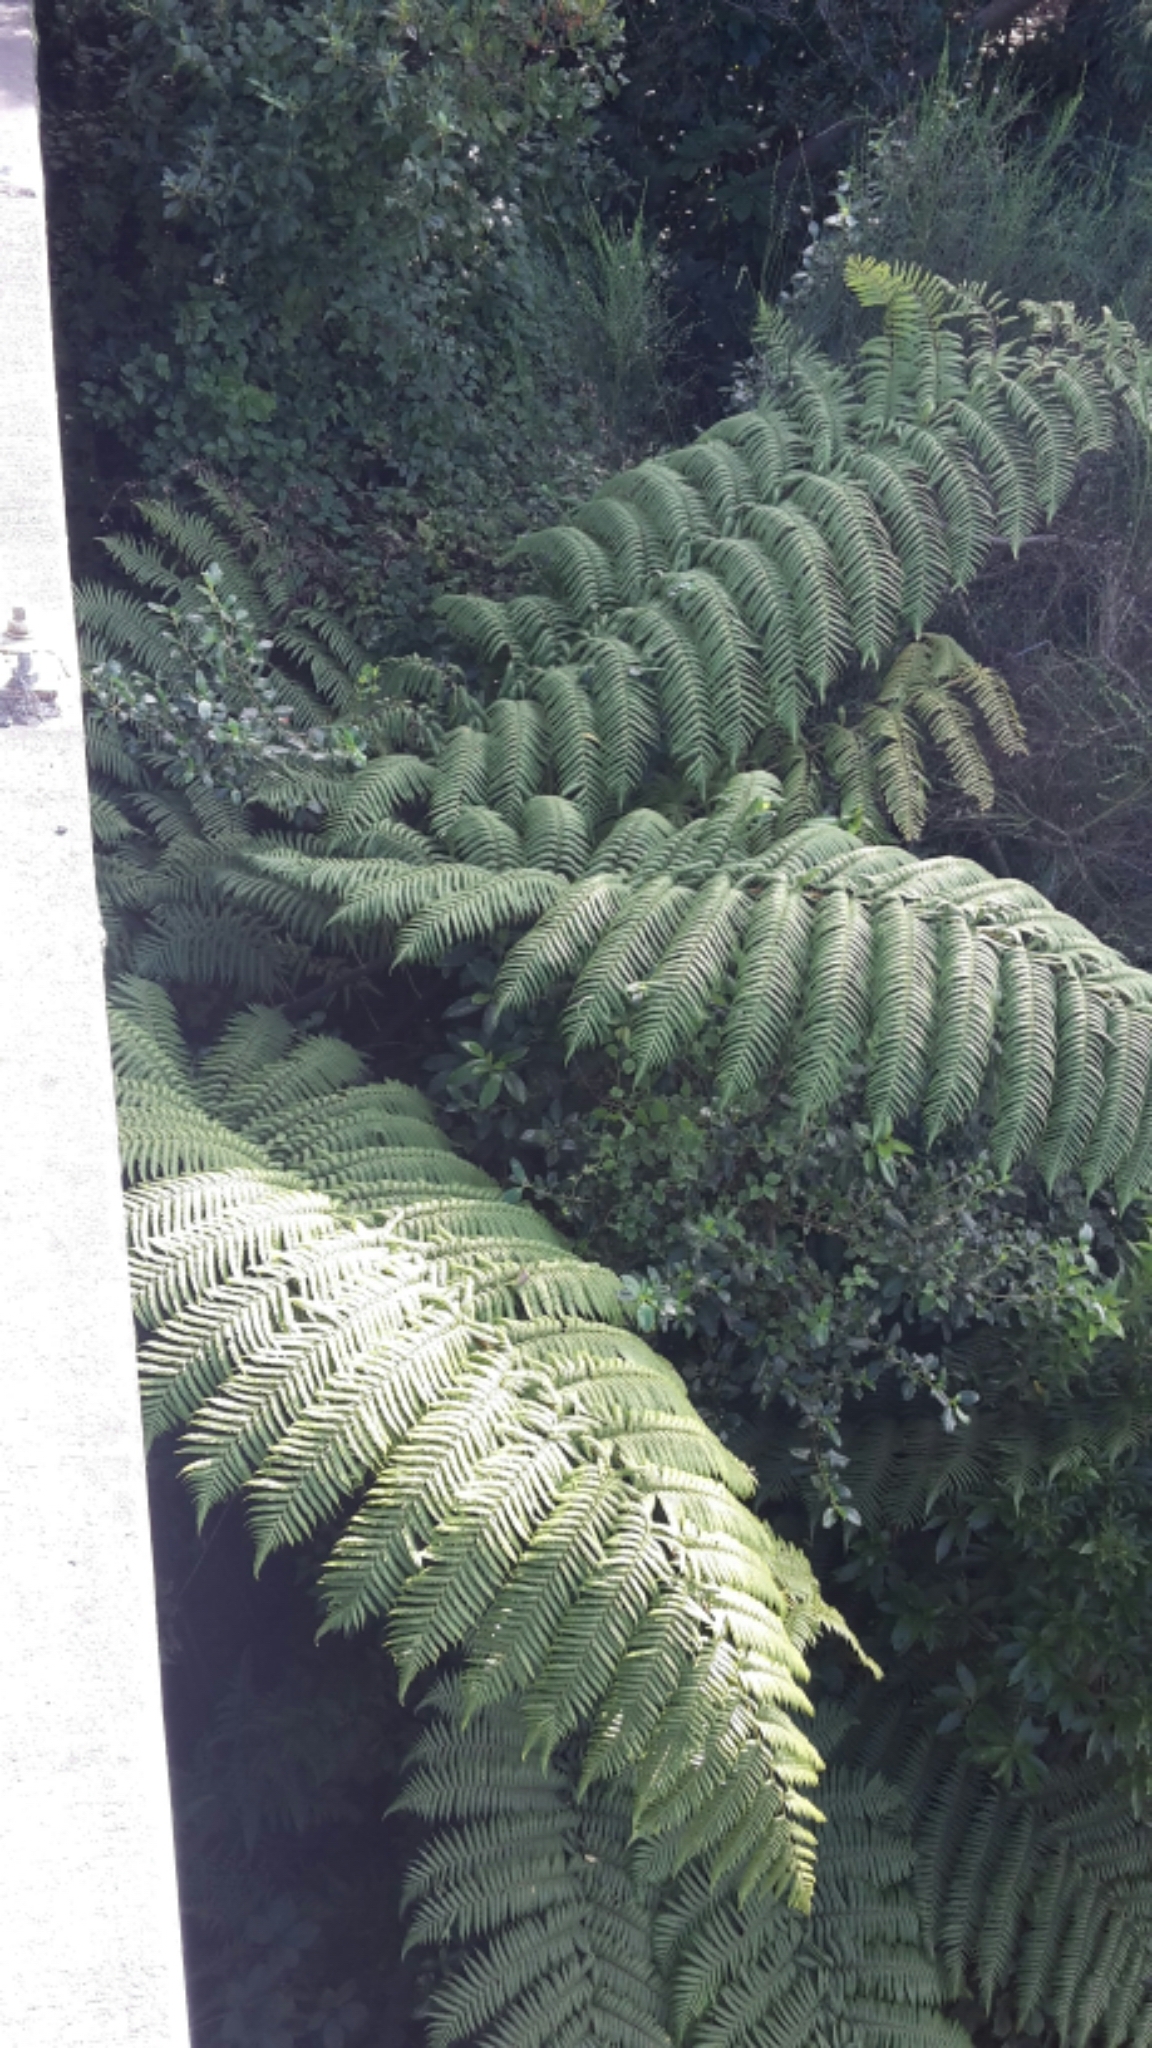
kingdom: Plantae
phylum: Tracheophyta
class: Polypodiopsida
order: Cyatheales
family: Cyatheaceae
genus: Sphaeropteris
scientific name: Sphaeropteris medullaris
